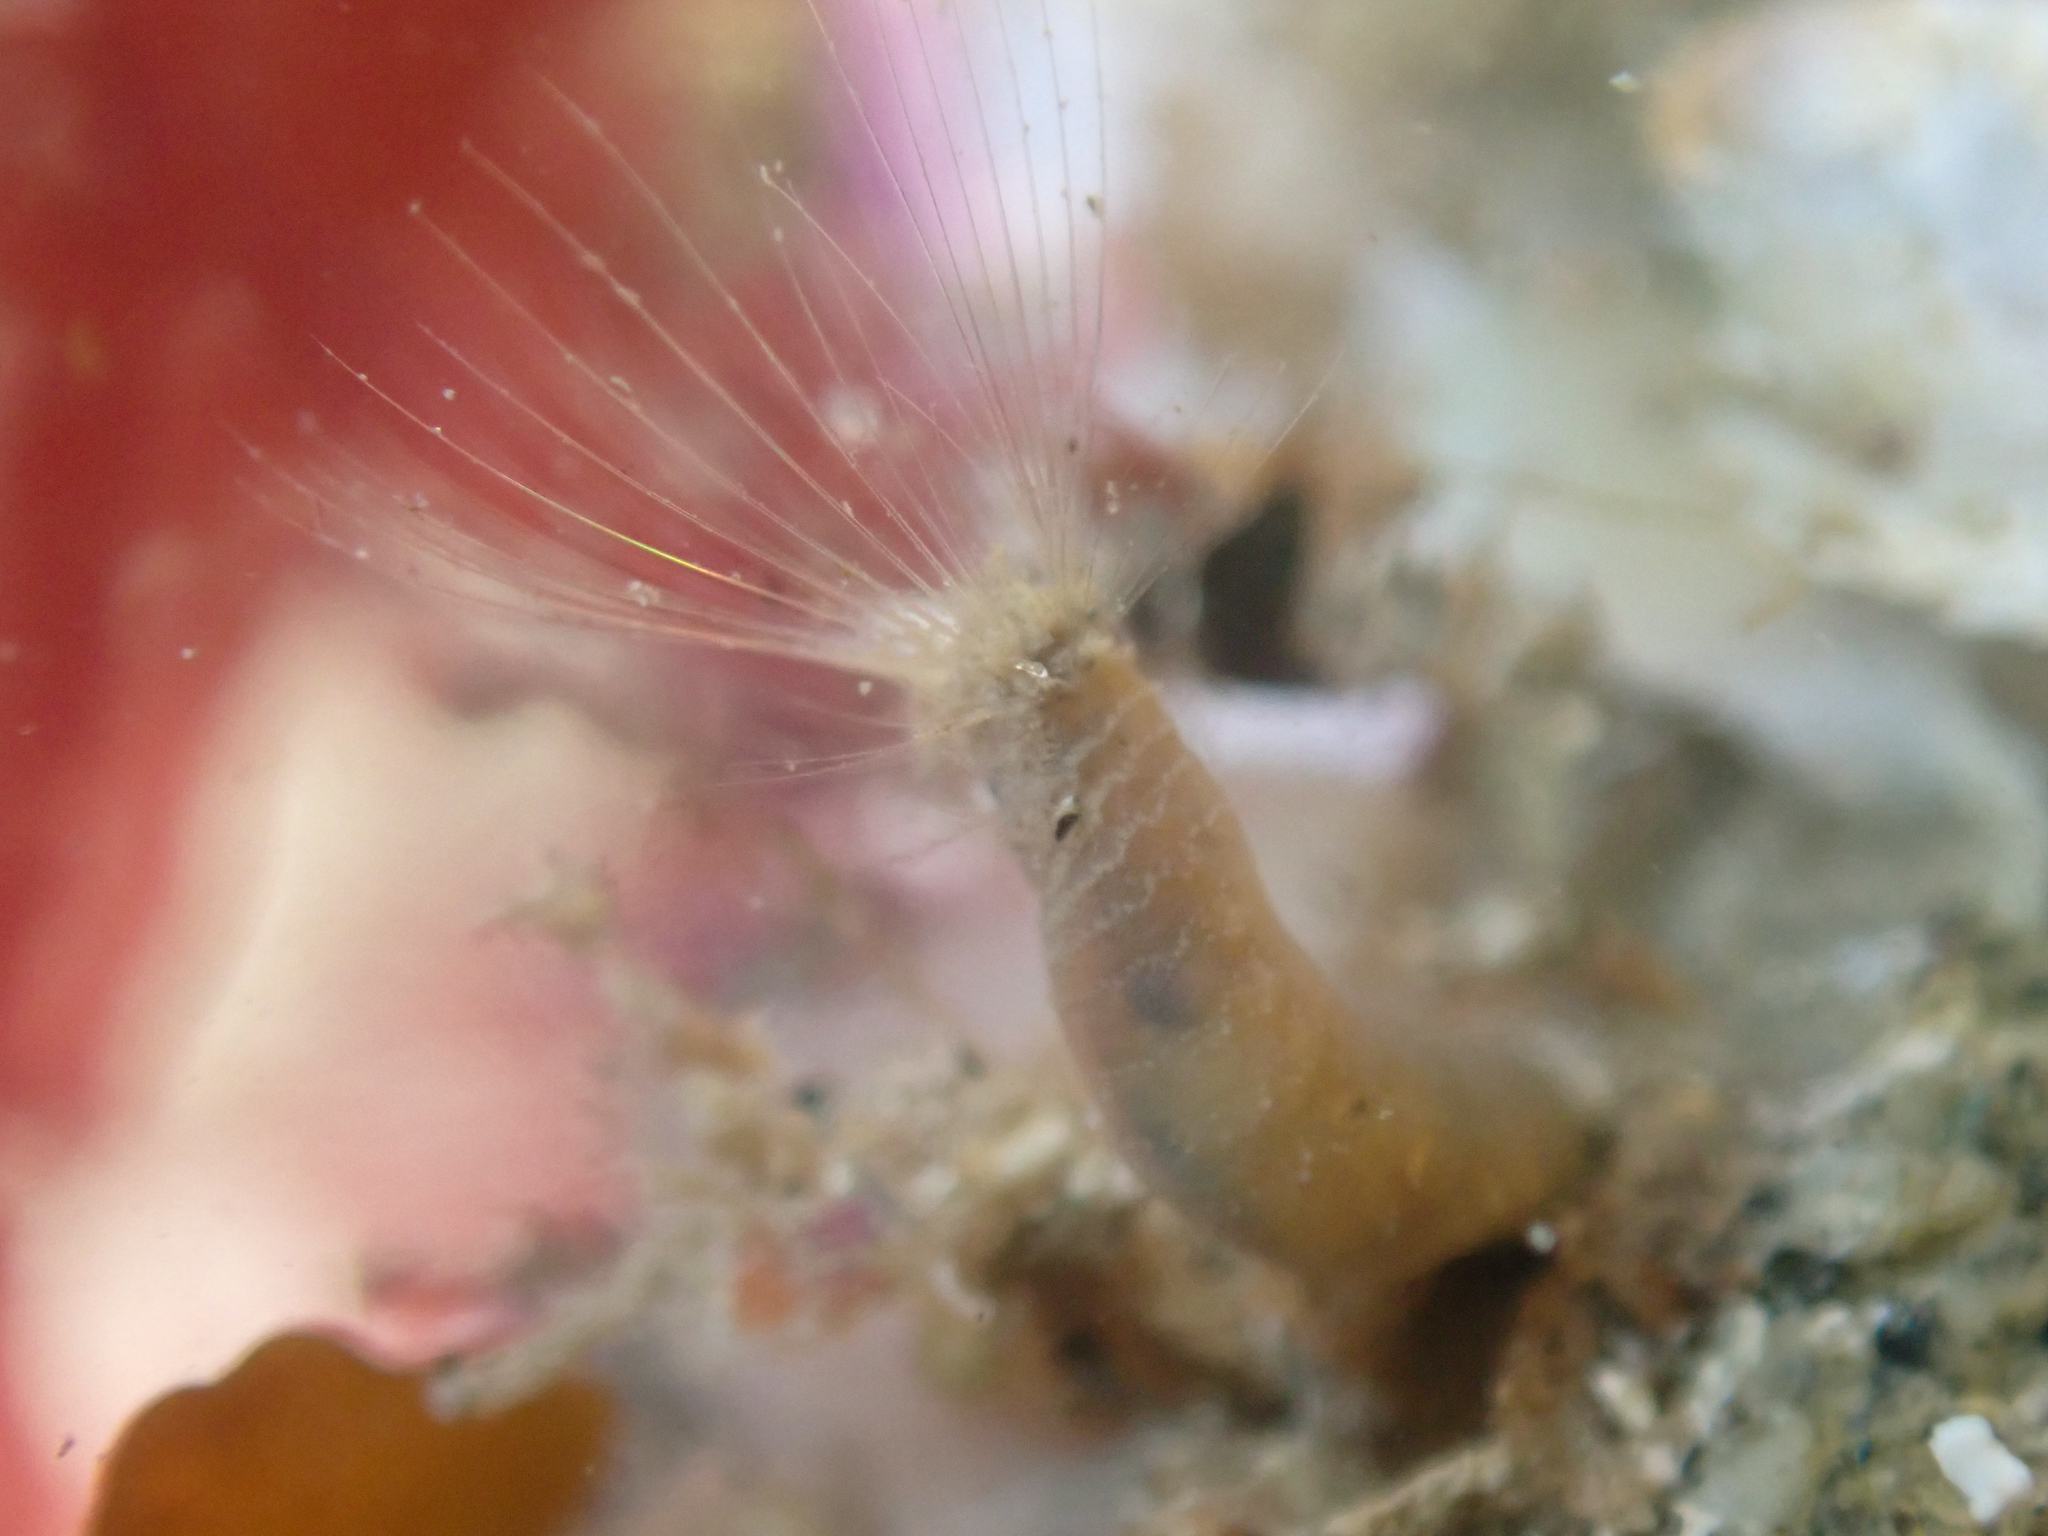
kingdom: Animalia
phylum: Annelida
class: Polychaeta
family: Flabelligeridae
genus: Semiodera
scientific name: Semiodera inflata
